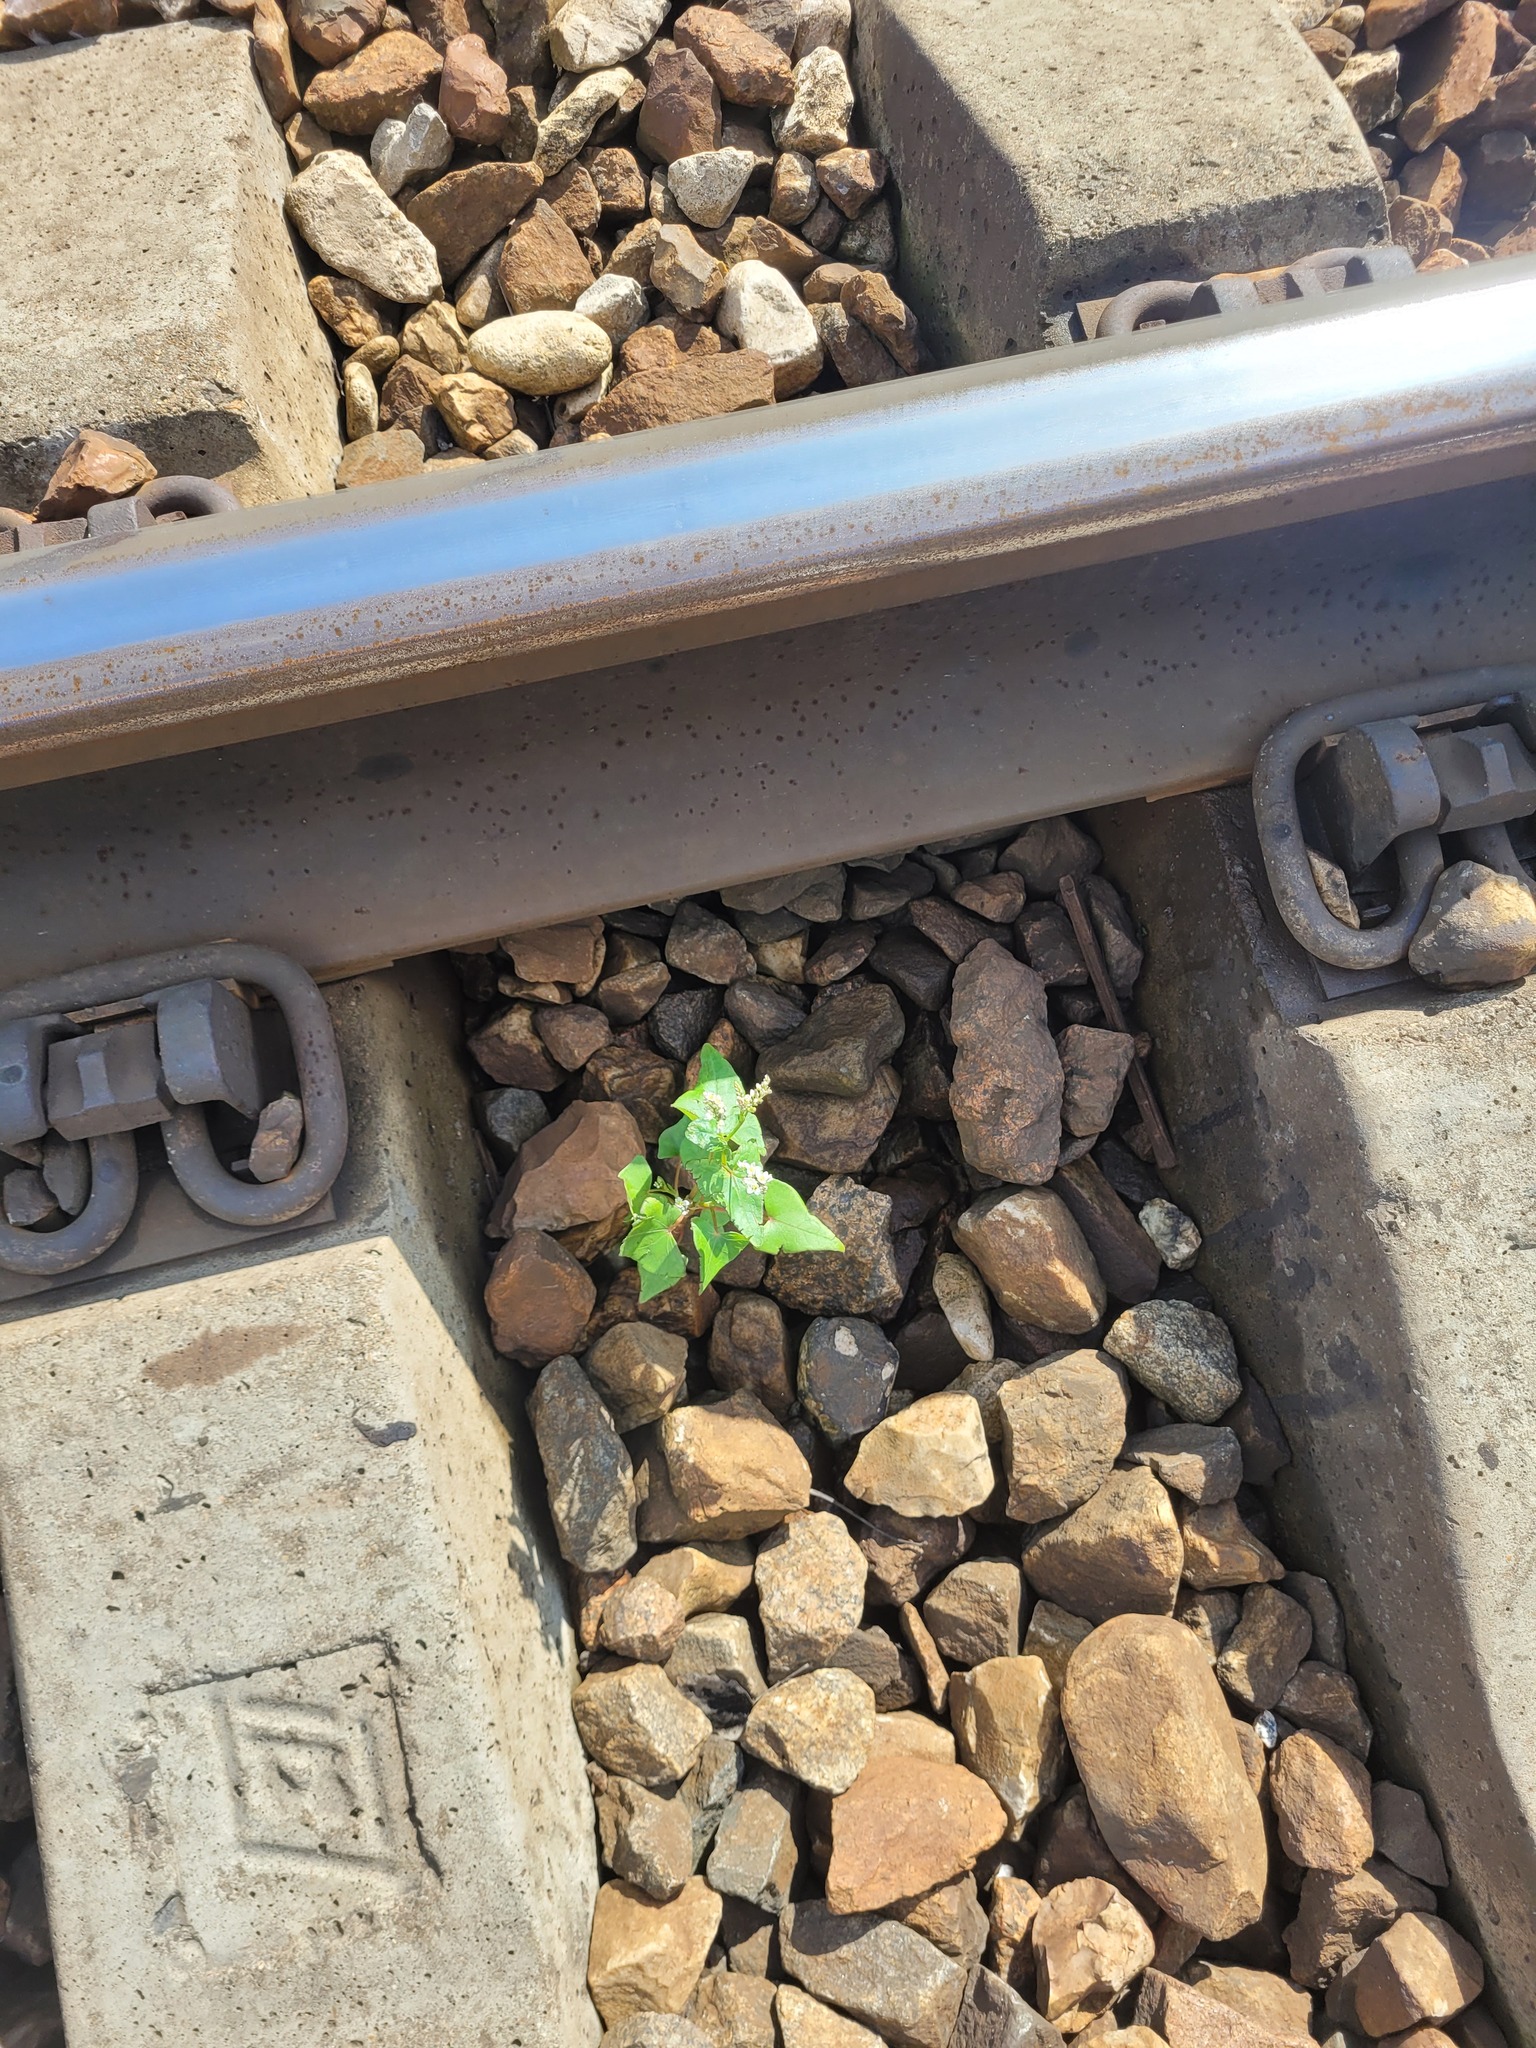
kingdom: Plantae
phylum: Tracheophyta
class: Magnoliopsida
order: Caryophyllales
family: Polygonaceae
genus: Fagopyrum
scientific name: Fagopyrum esculentum
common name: Buckwheat
